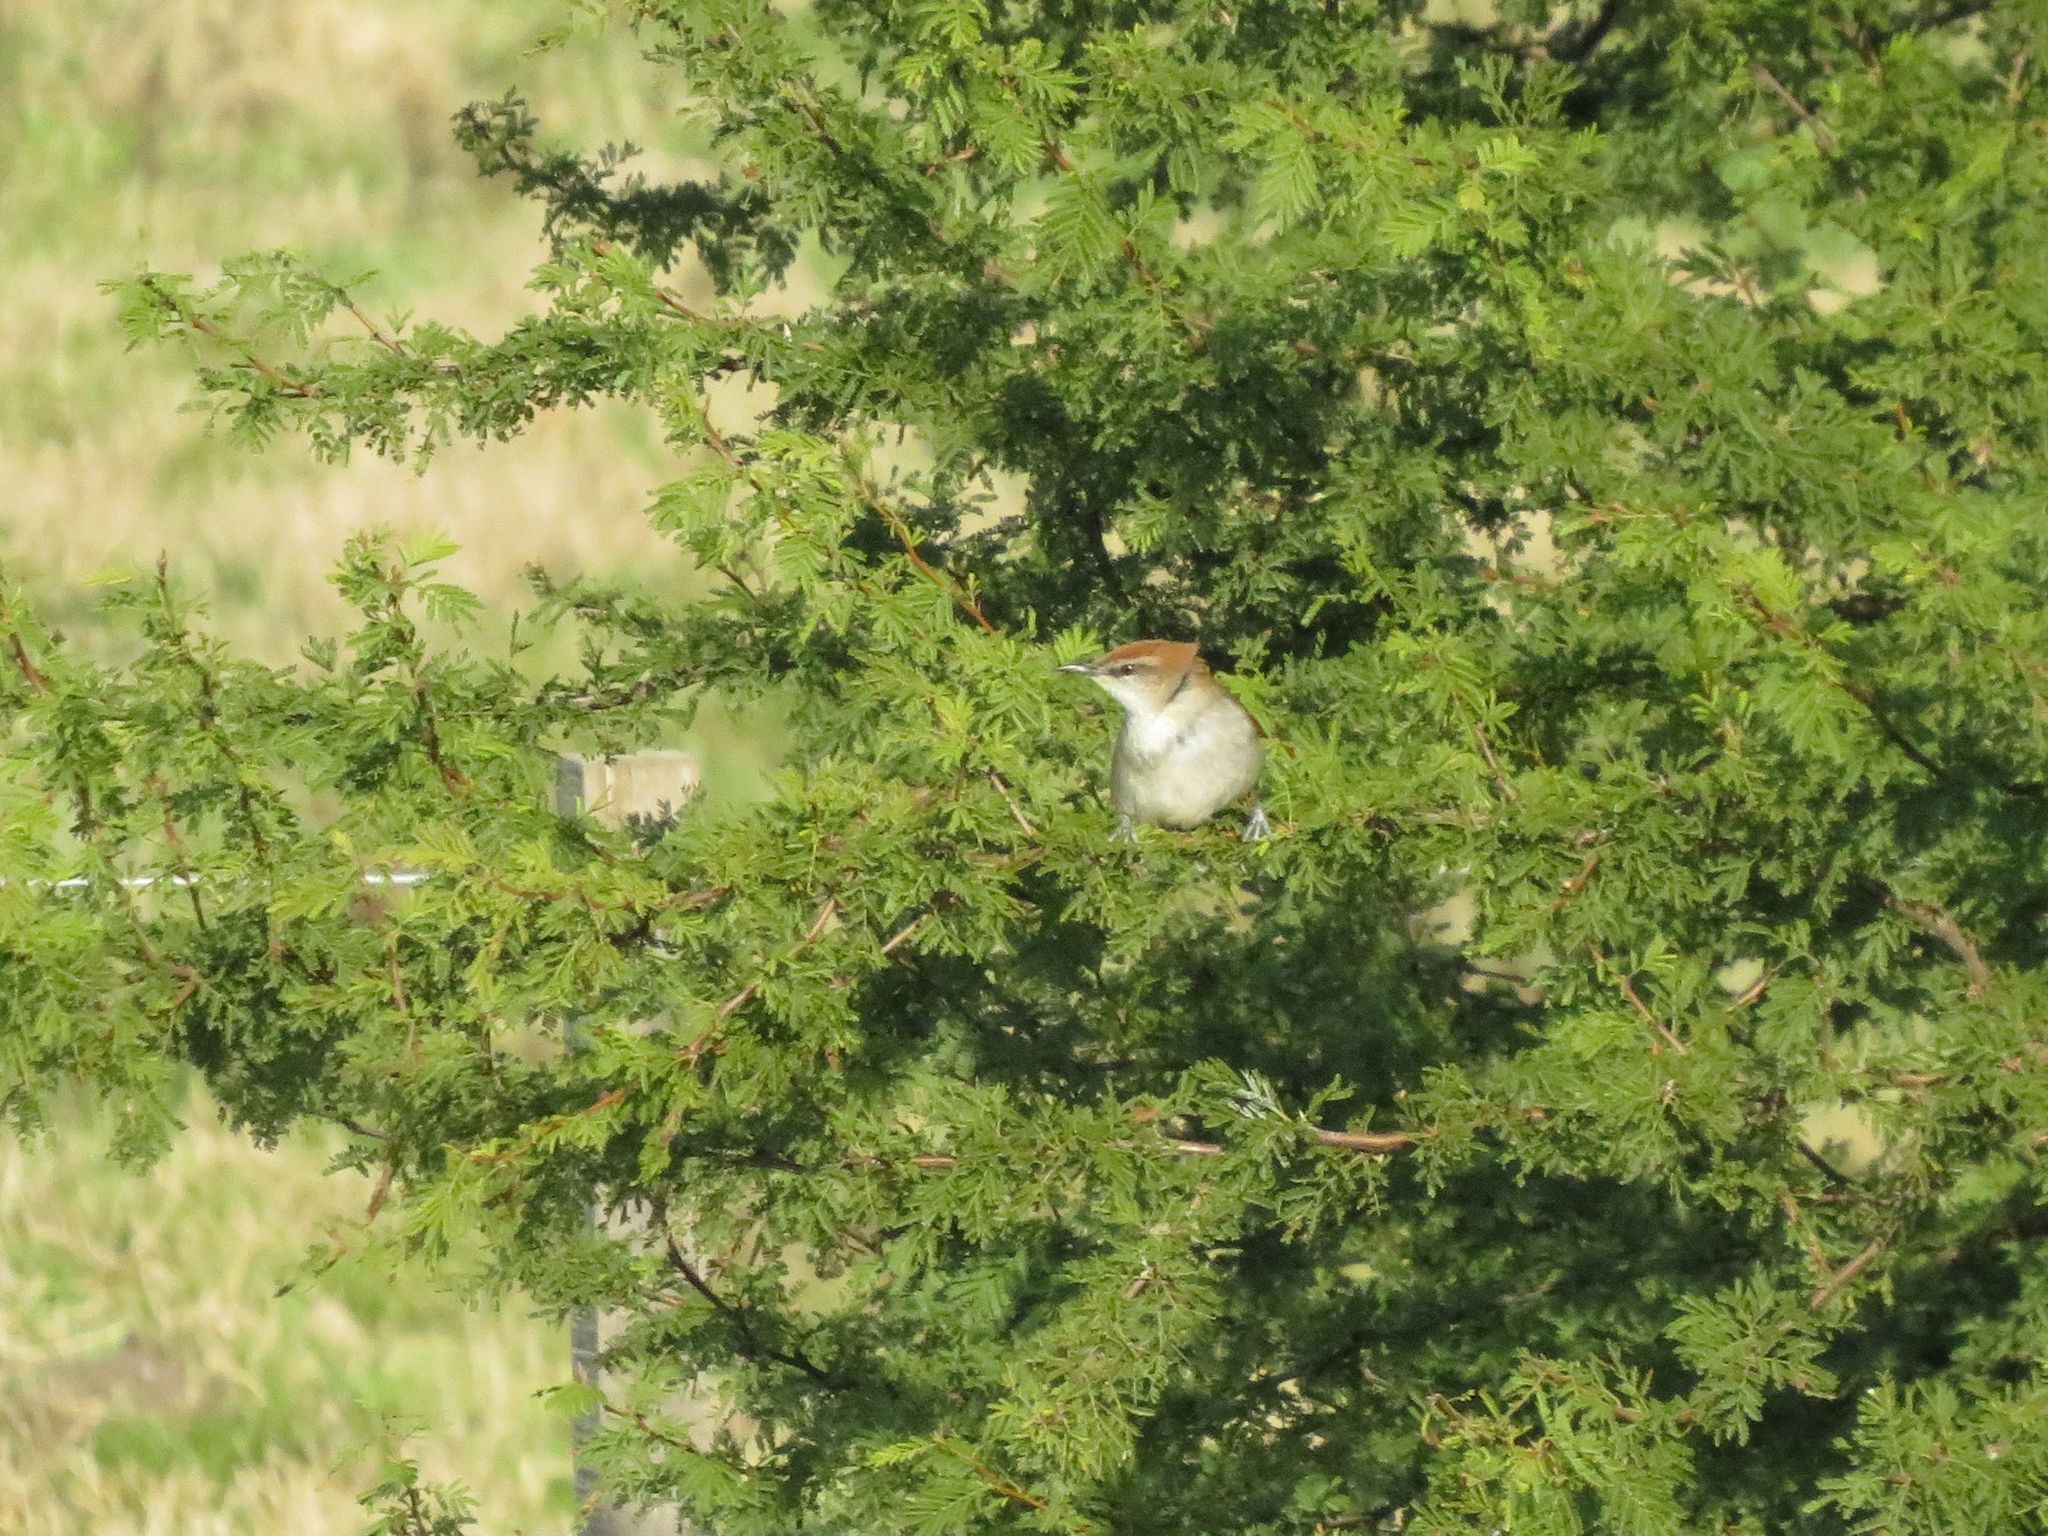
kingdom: Animalia
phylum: Chordata
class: Aves
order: Passeriformes
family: Furnariidae
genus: Certhiaxis
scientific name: Certhiaxis cinnamomeus
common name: Yellow-chinned spinetail
